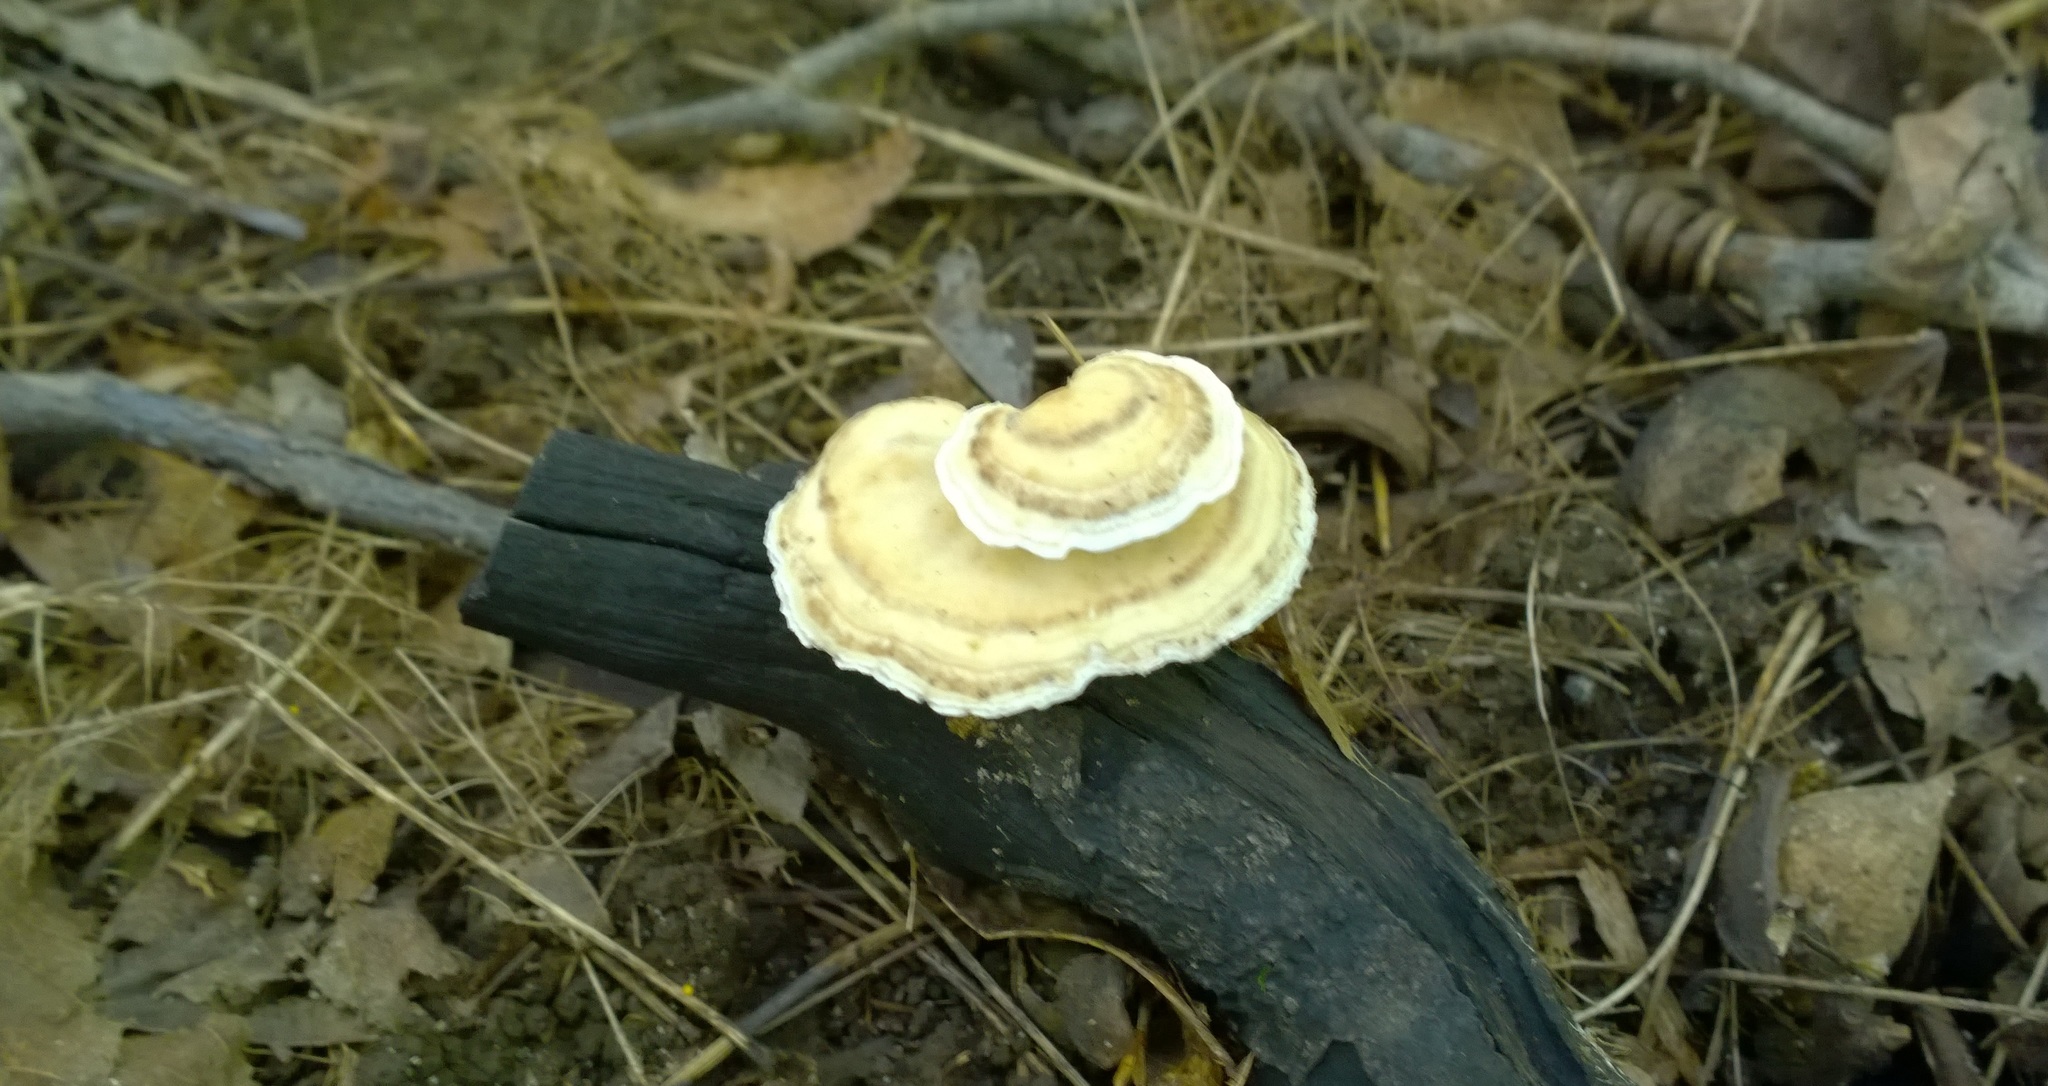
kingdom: Fungi
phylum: Basidiomycota
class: Agaricomycetes
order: Polyporales
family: Steccherinaceae
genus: Mycorrhaphium
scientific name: Mycorrhaphium adustum
